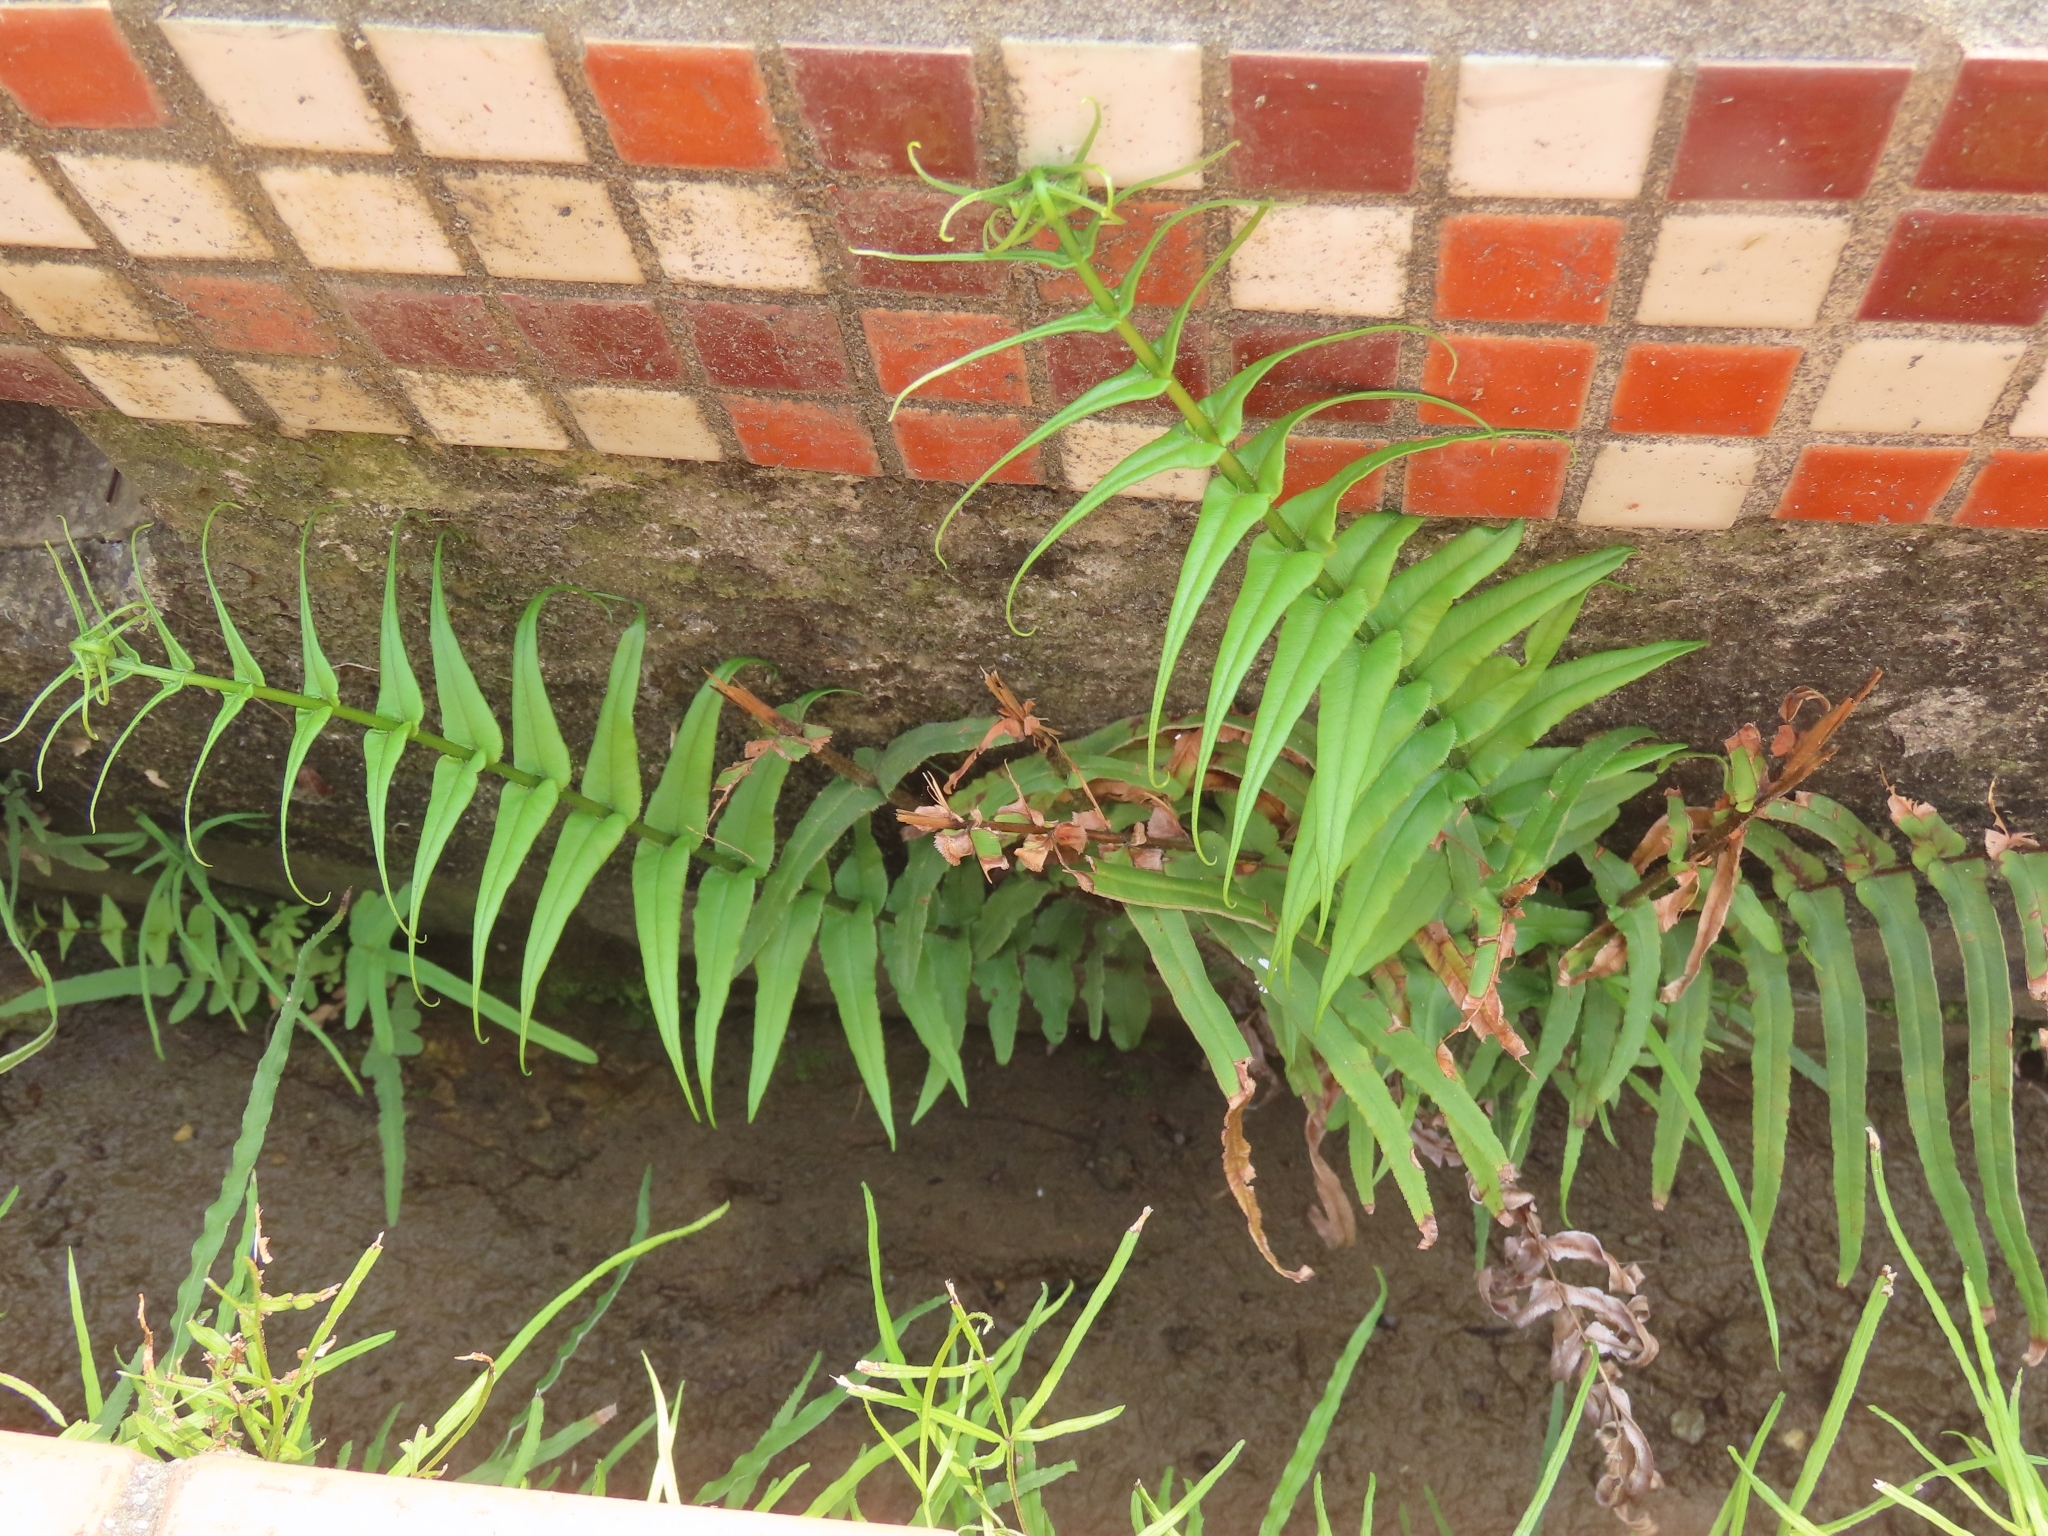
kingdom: Plantae
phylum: Tracheophyta
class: Polypodiopsida
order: Polypodiales
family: Pteridaceae
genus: Pteris
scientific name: Pteris vittata
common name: Ladder brake
